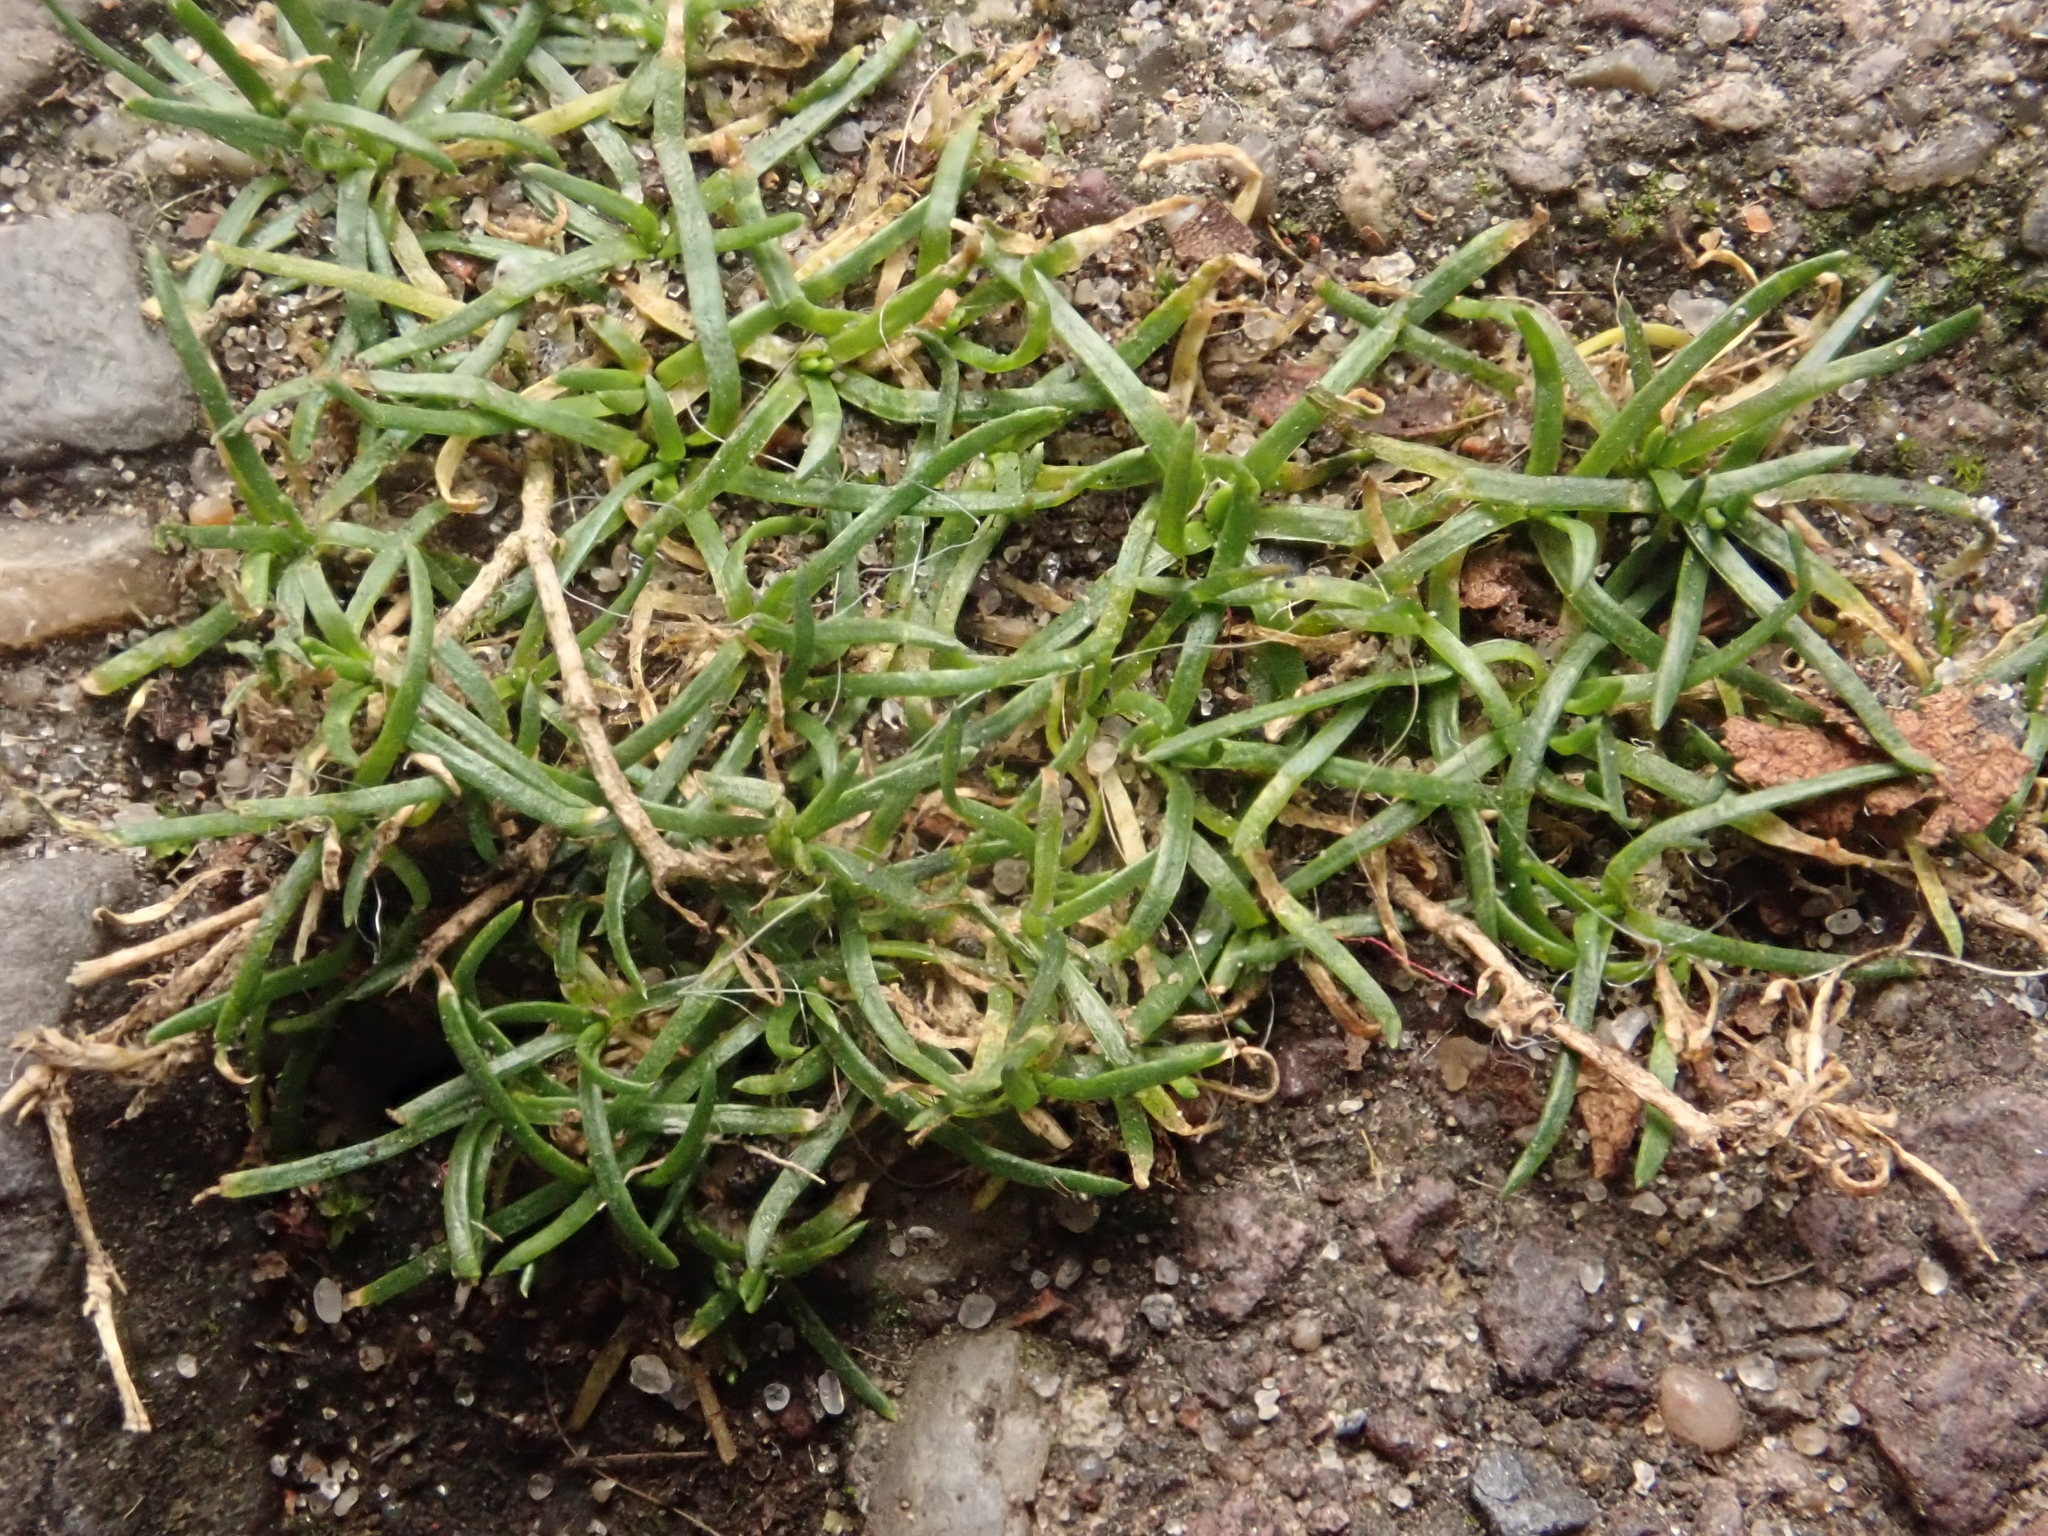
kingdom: Plantae
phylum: Tracheophyta
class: Magnoliopsida
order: Caryophyllales
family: Caryophyllaceae
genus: Sagina
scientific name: Sagina procumbens
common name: Procumbent pearlwort
